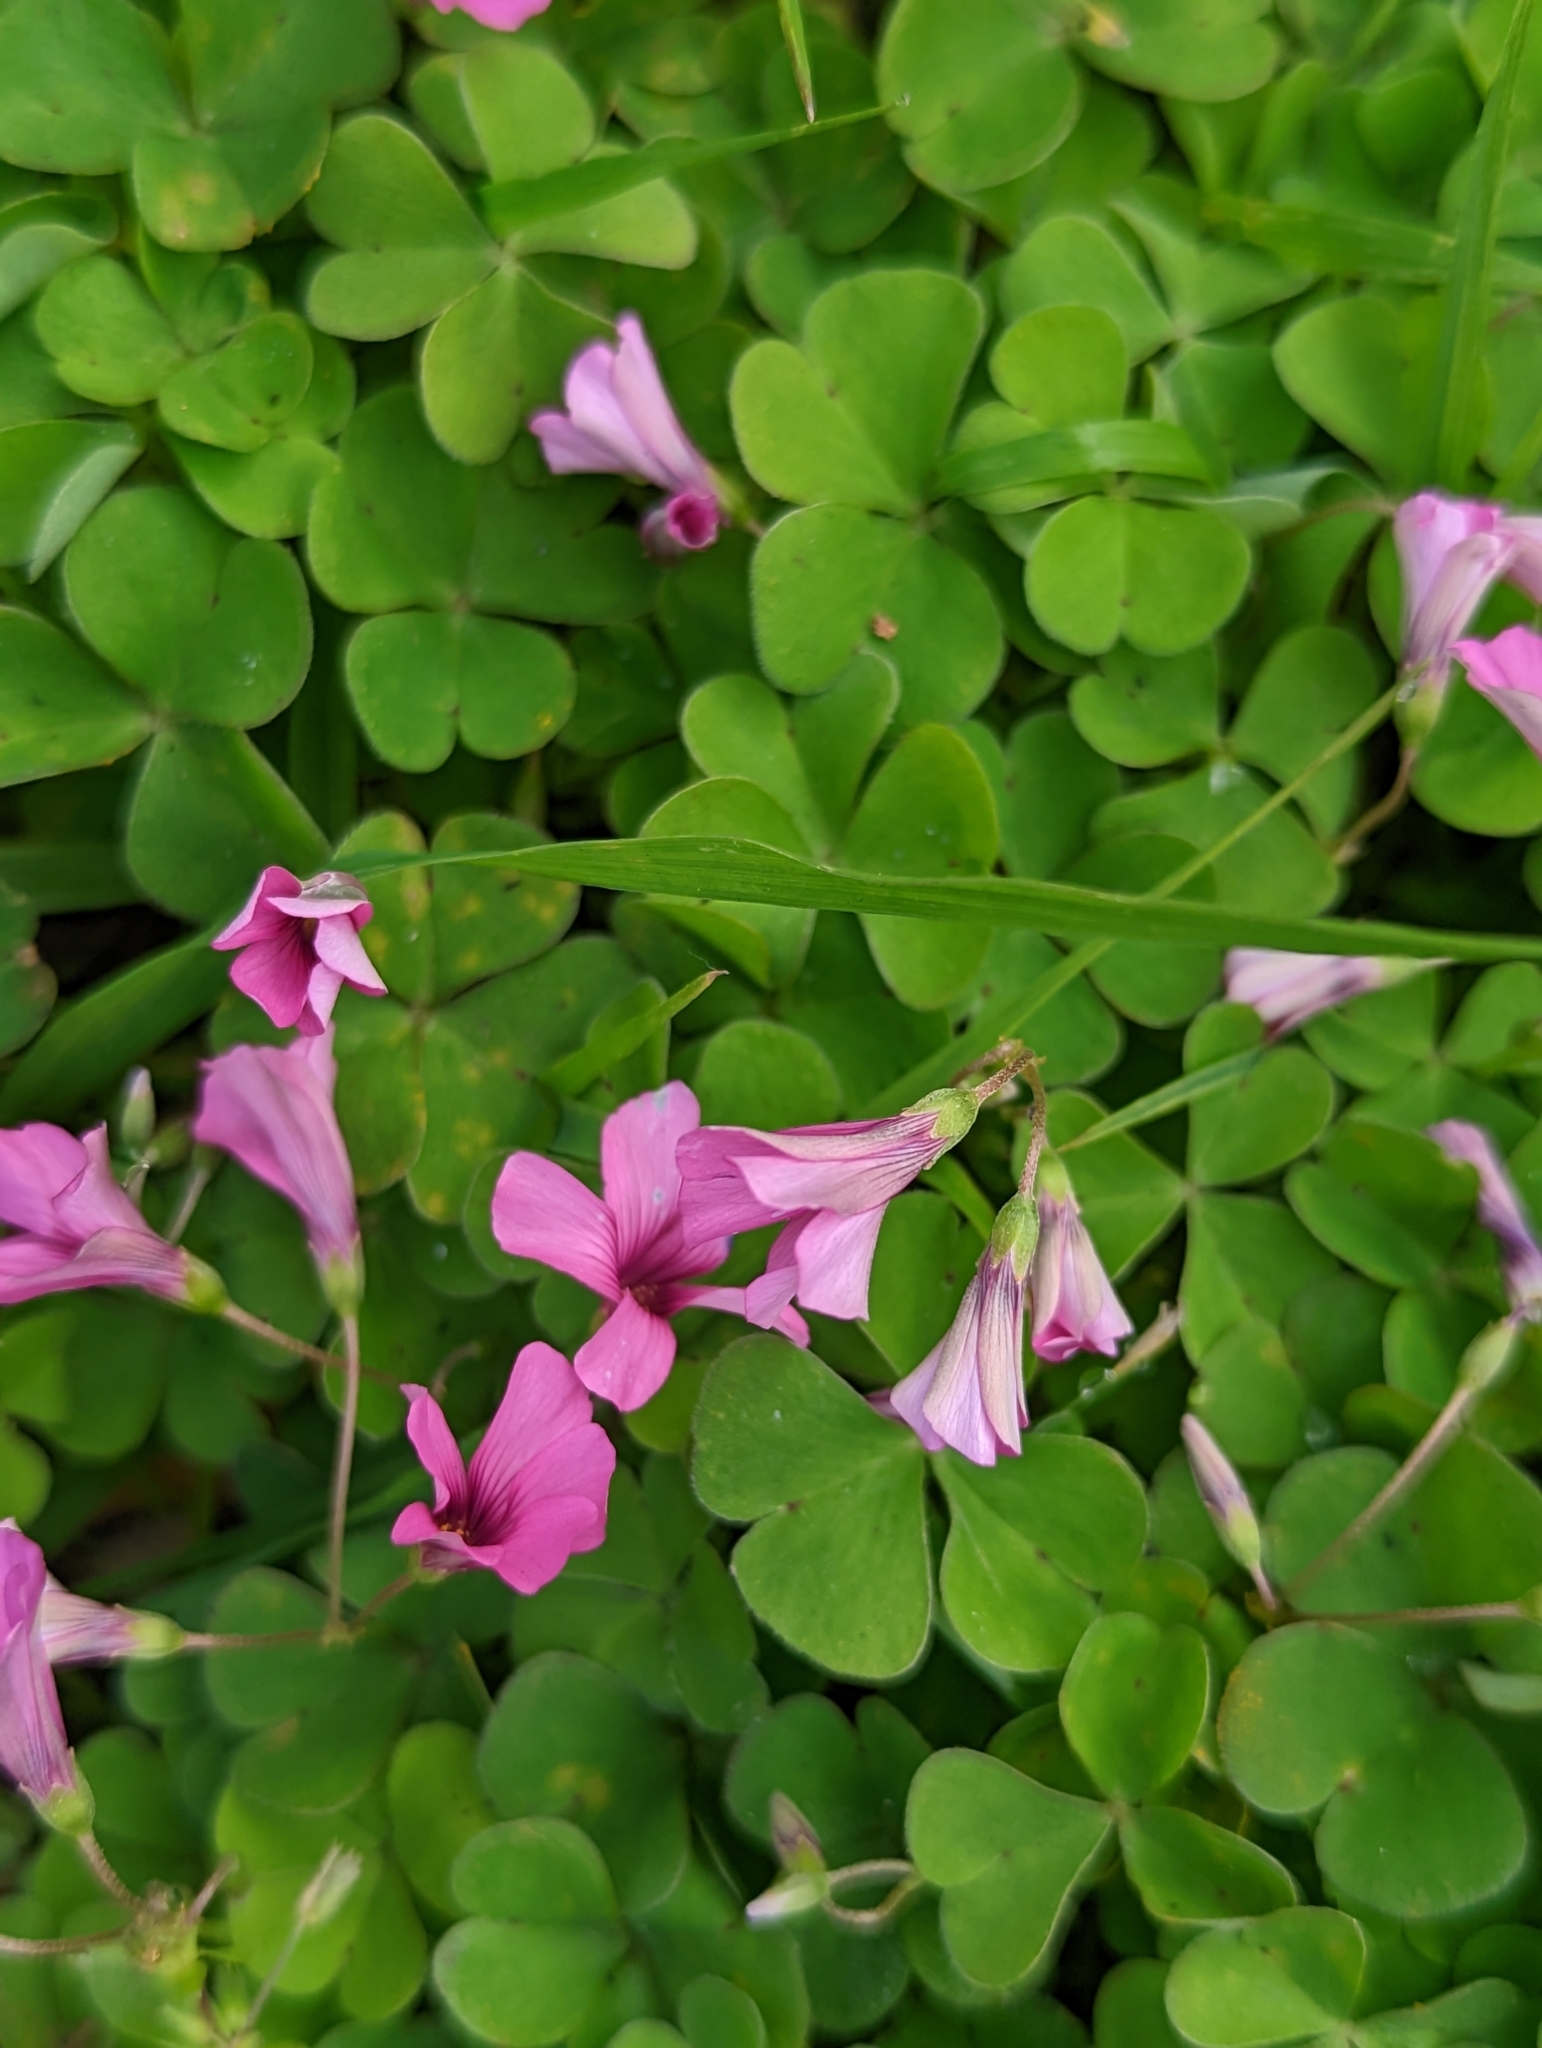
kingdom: Plantae
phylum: Tracheophyta
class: Magnoliopsida
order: Oxalidales
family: Oxalidaceae
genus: Oxalis
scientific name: Oxalis articulata
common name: Pink-sorrel
